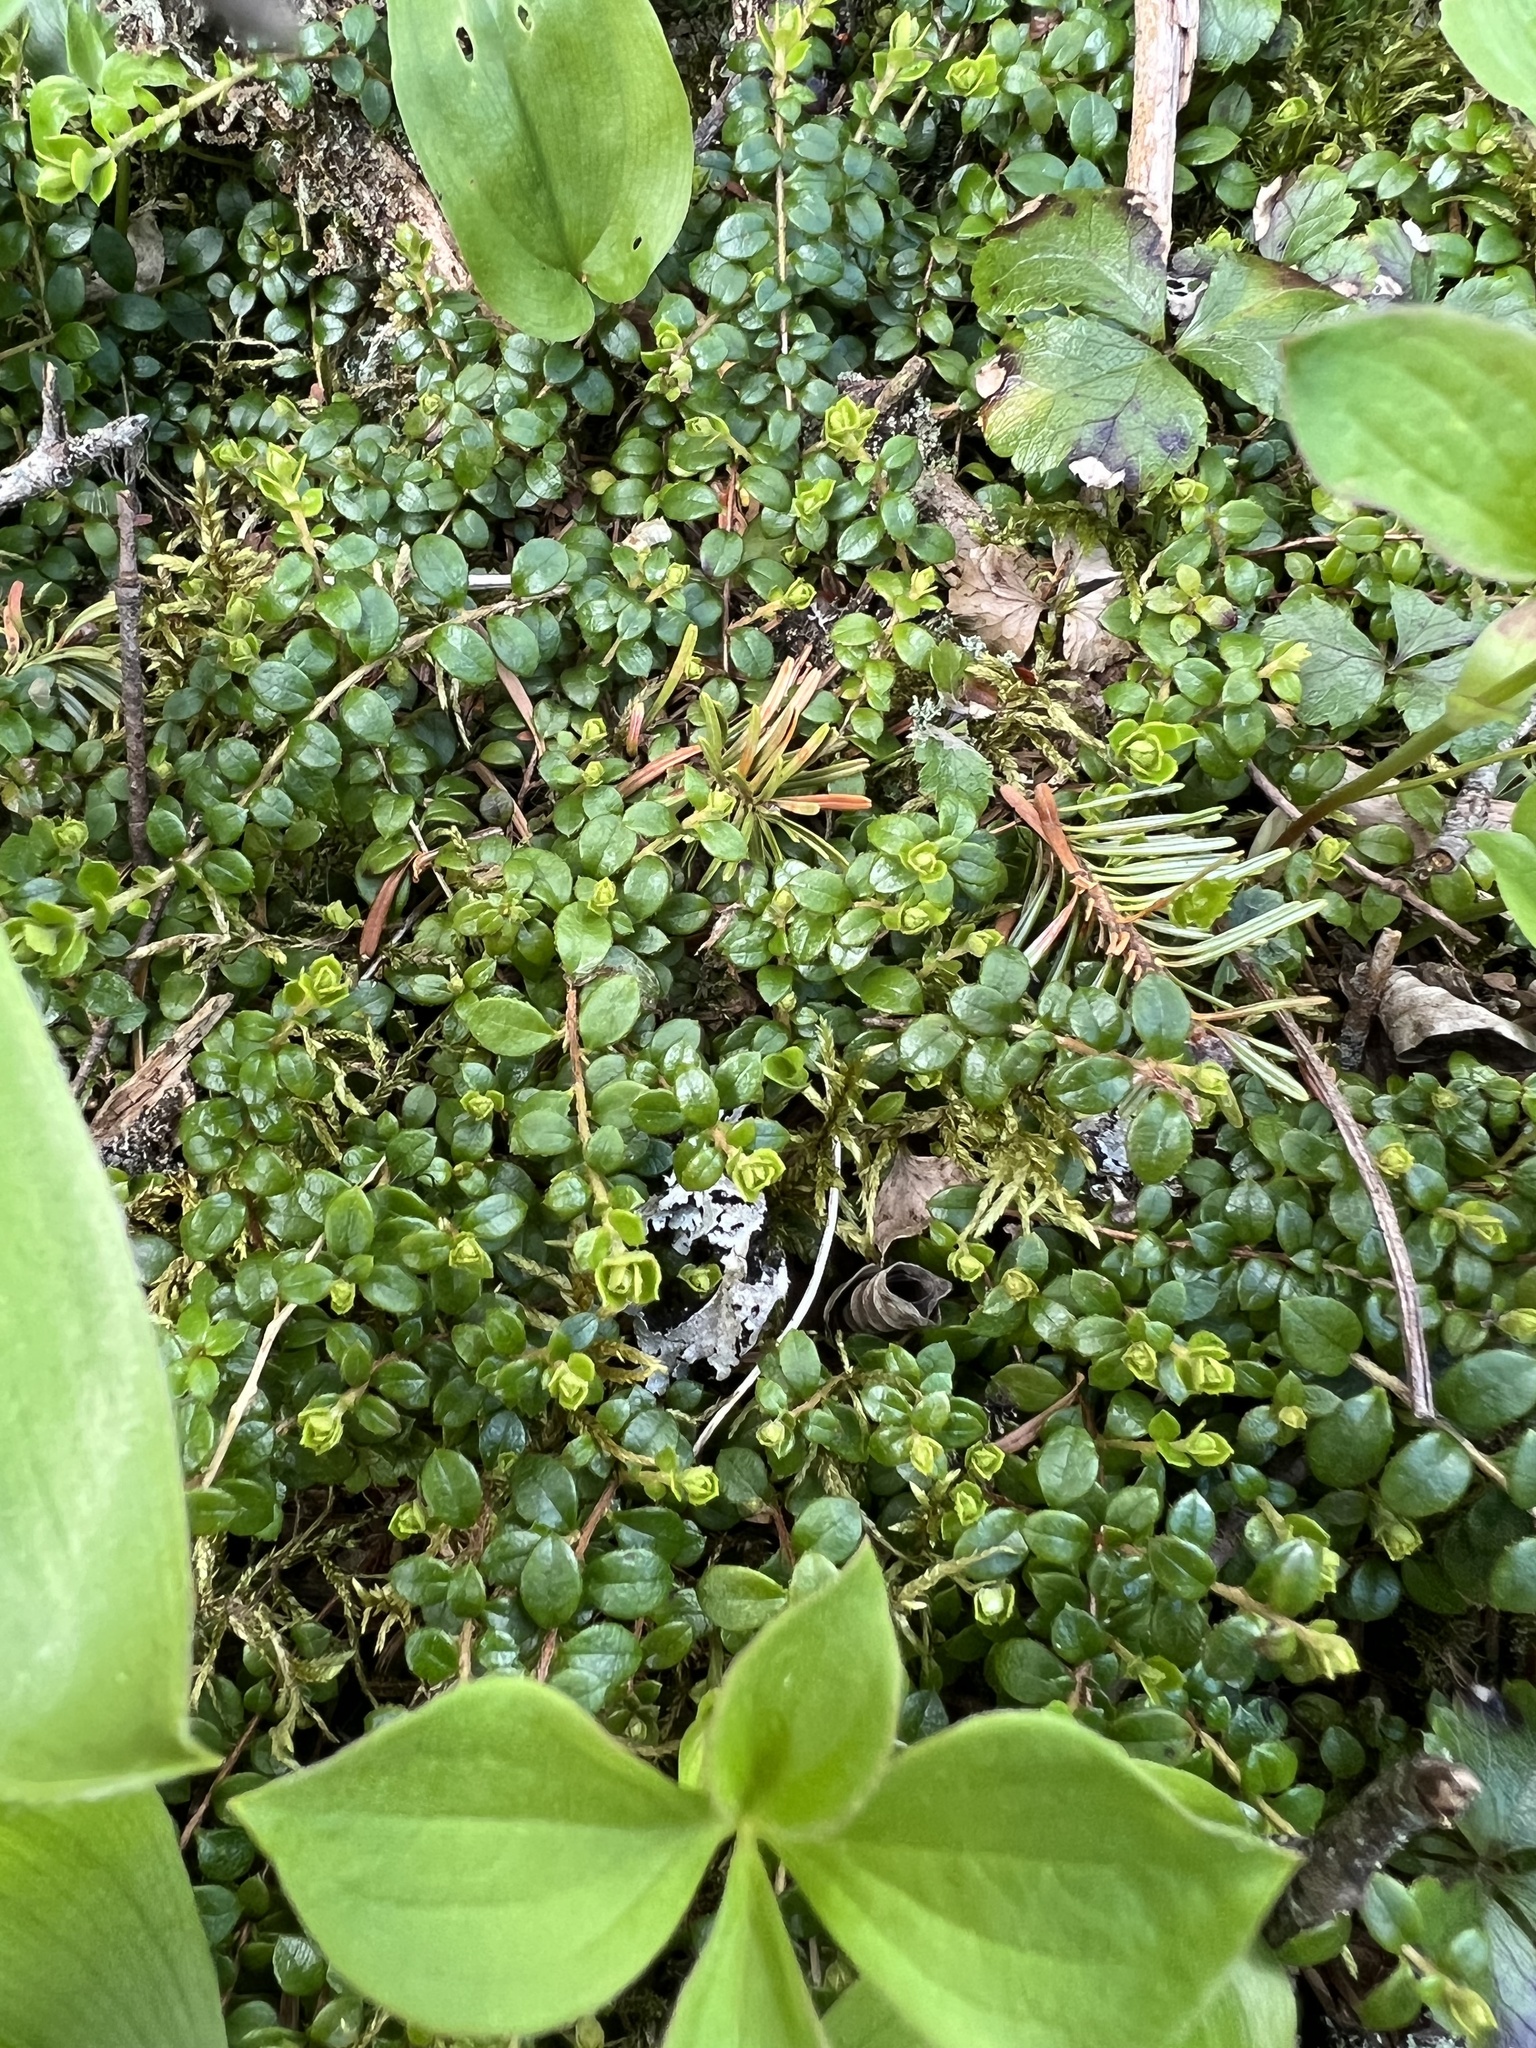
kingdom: Plantae
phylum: Tracheophyta
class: Magnoliopsida
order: Ericales
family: Ericaceae
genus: Gaultheria
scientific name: Gaultheria hispidula
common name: Cancer wintergreen
